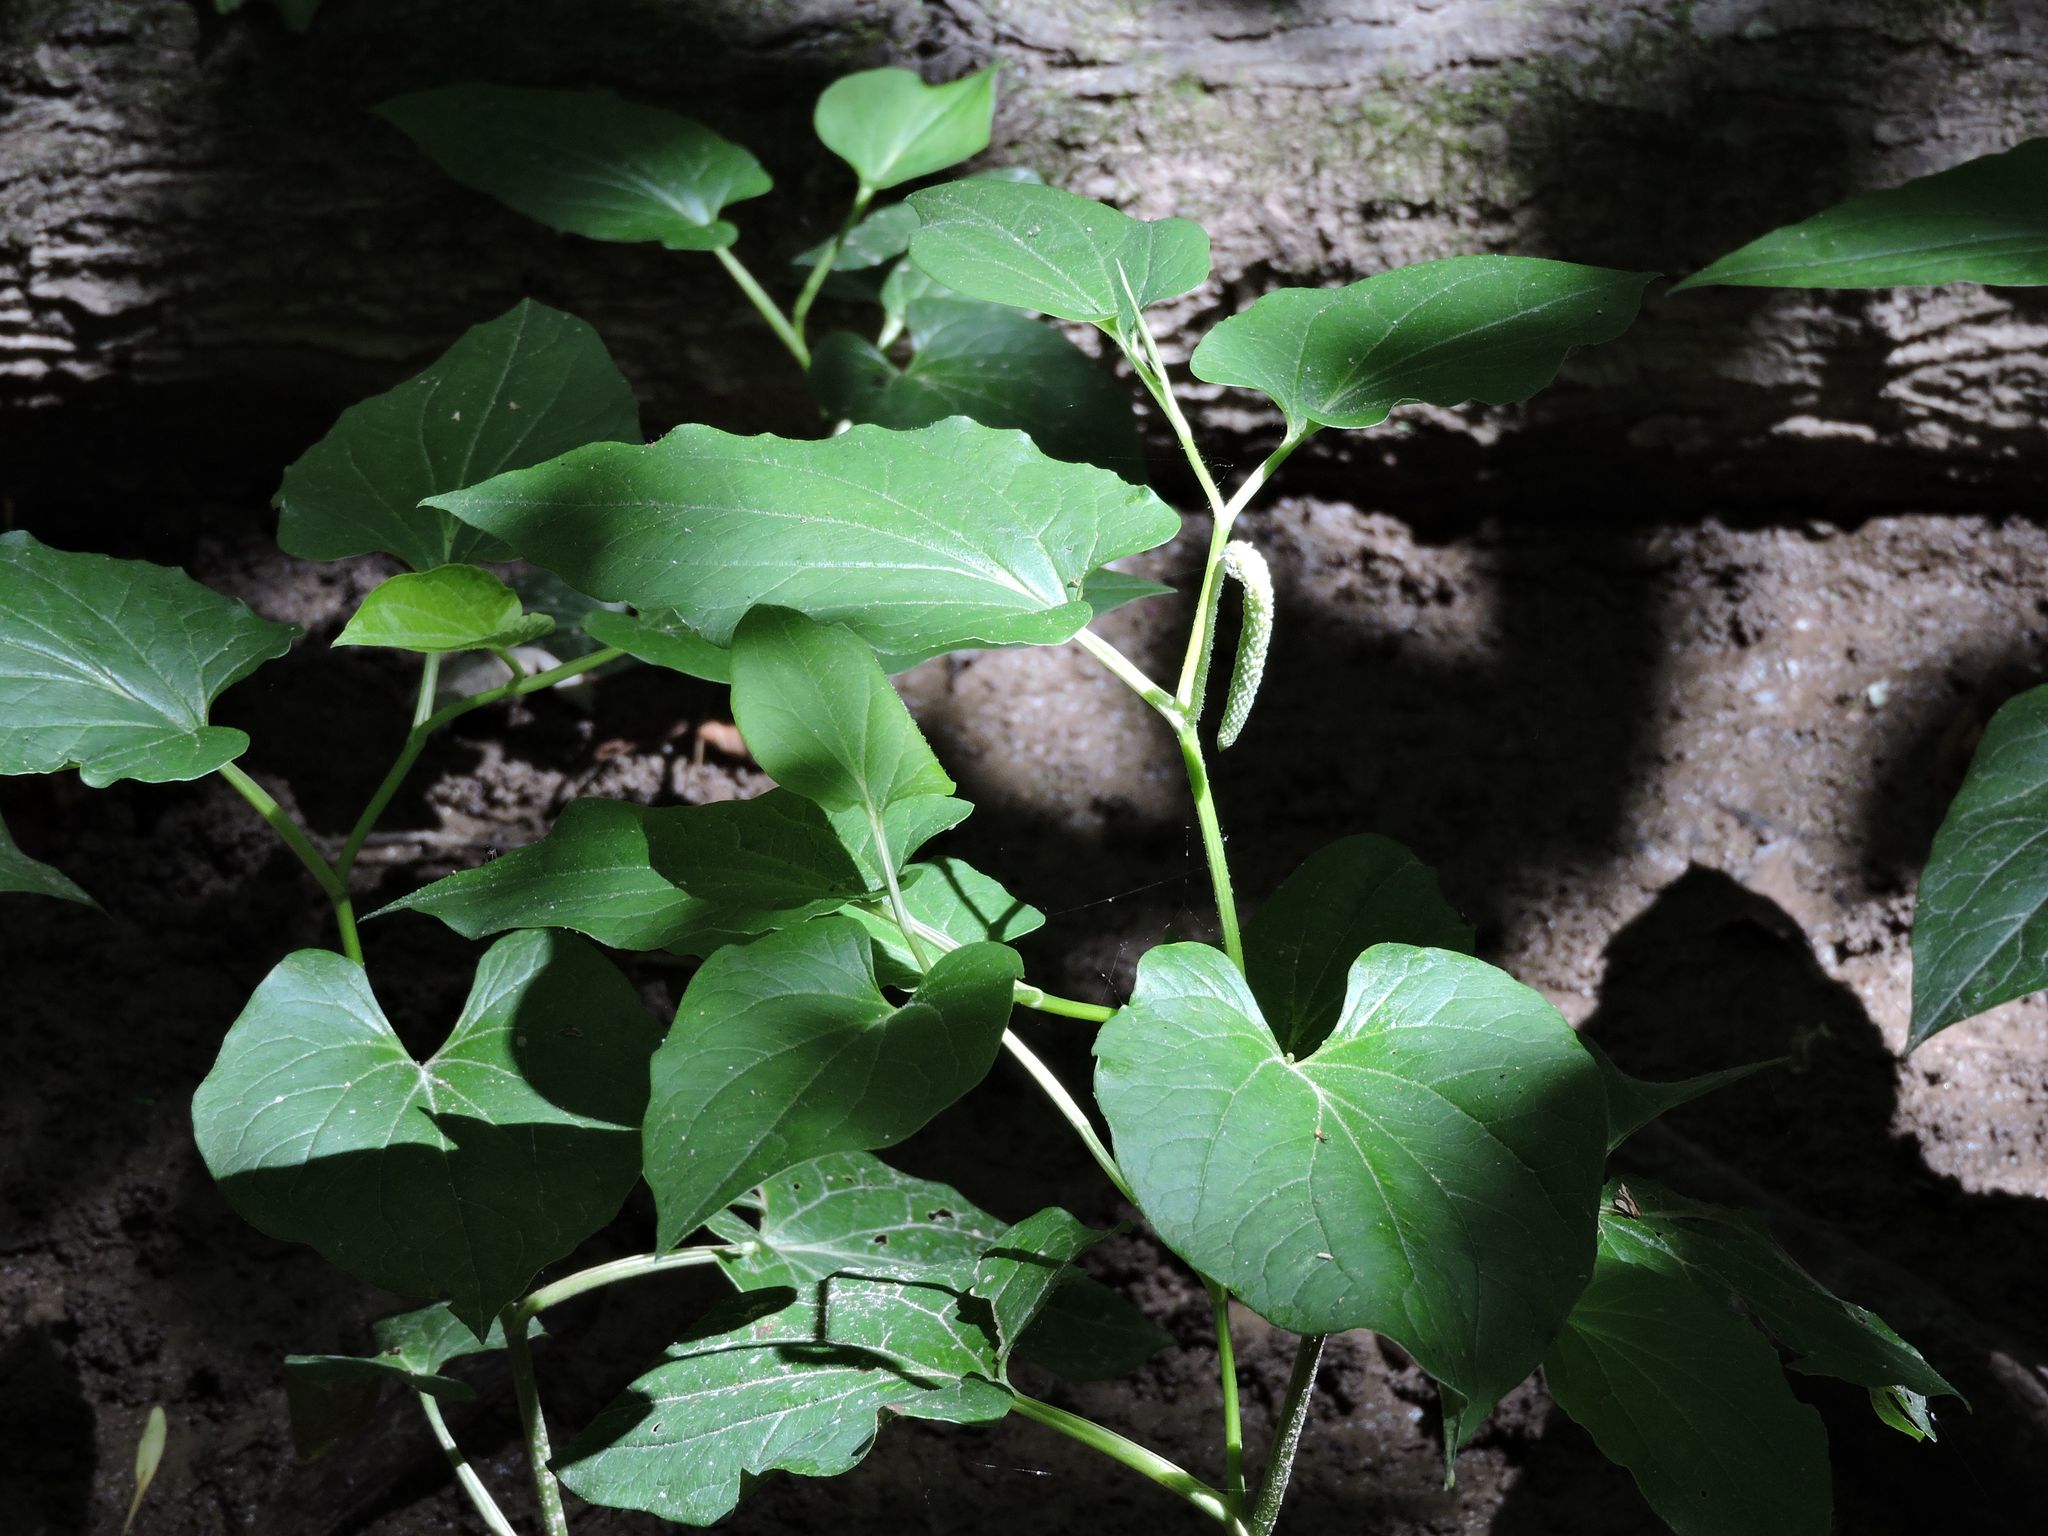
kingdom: Plantae
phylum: Tracheophyta
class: Magnoliopsida
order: Piperales
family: Saururaceae
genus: Saururus
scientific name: Saururus cernuus
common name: Lizard's-tail
